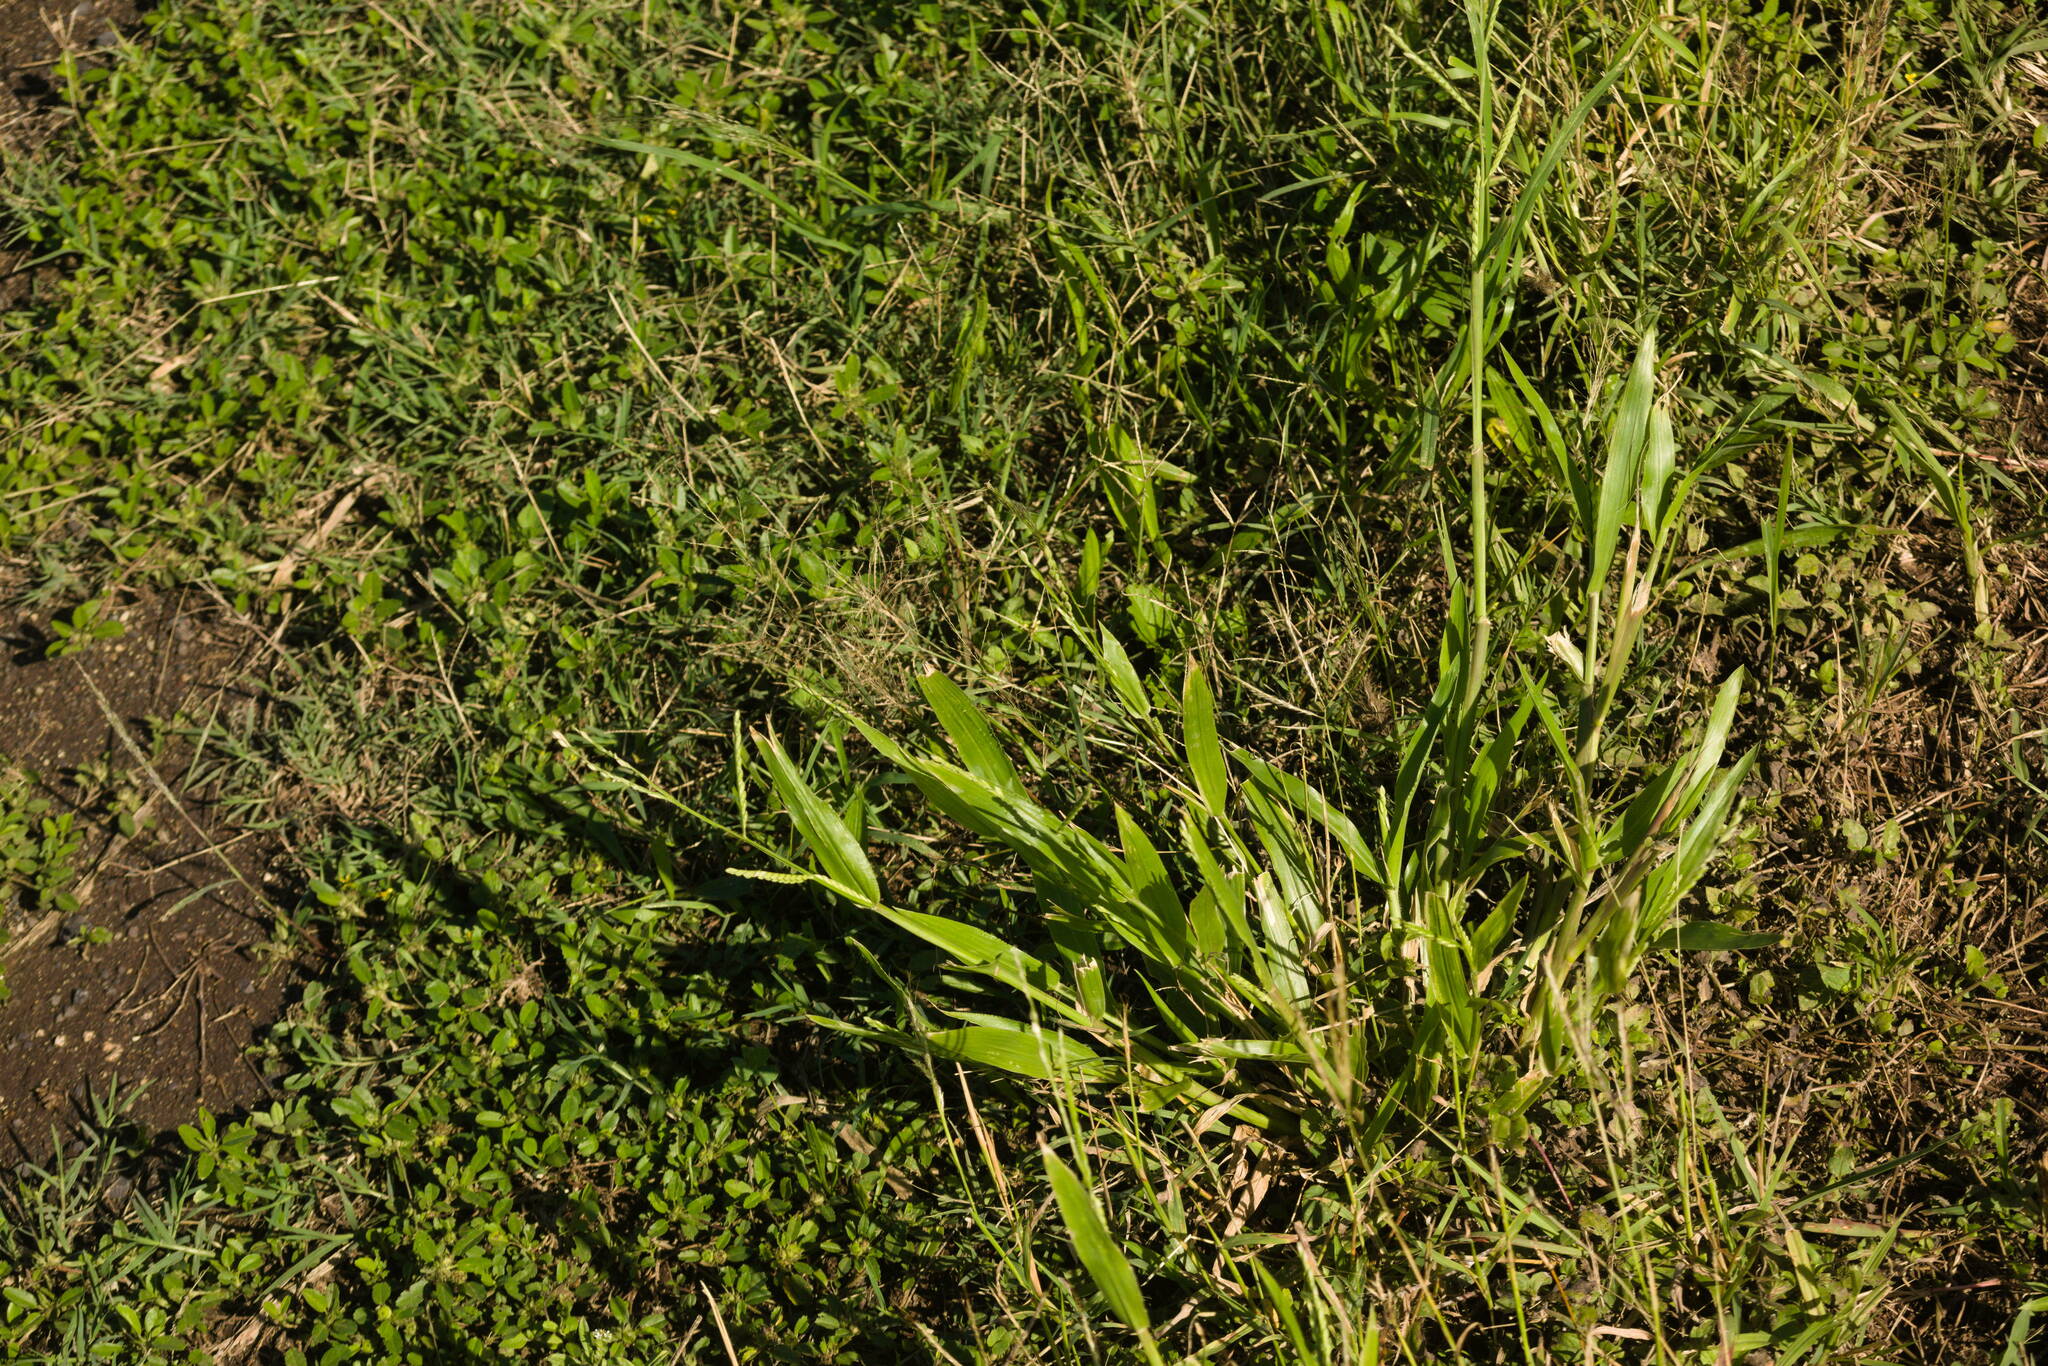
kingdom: Plantae
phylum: Tracheophyta
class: Liliopsida
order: Poales
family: Poaceae
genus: Urochloa
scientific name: Urochloa plantaginea
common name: Plantain signalgrass
